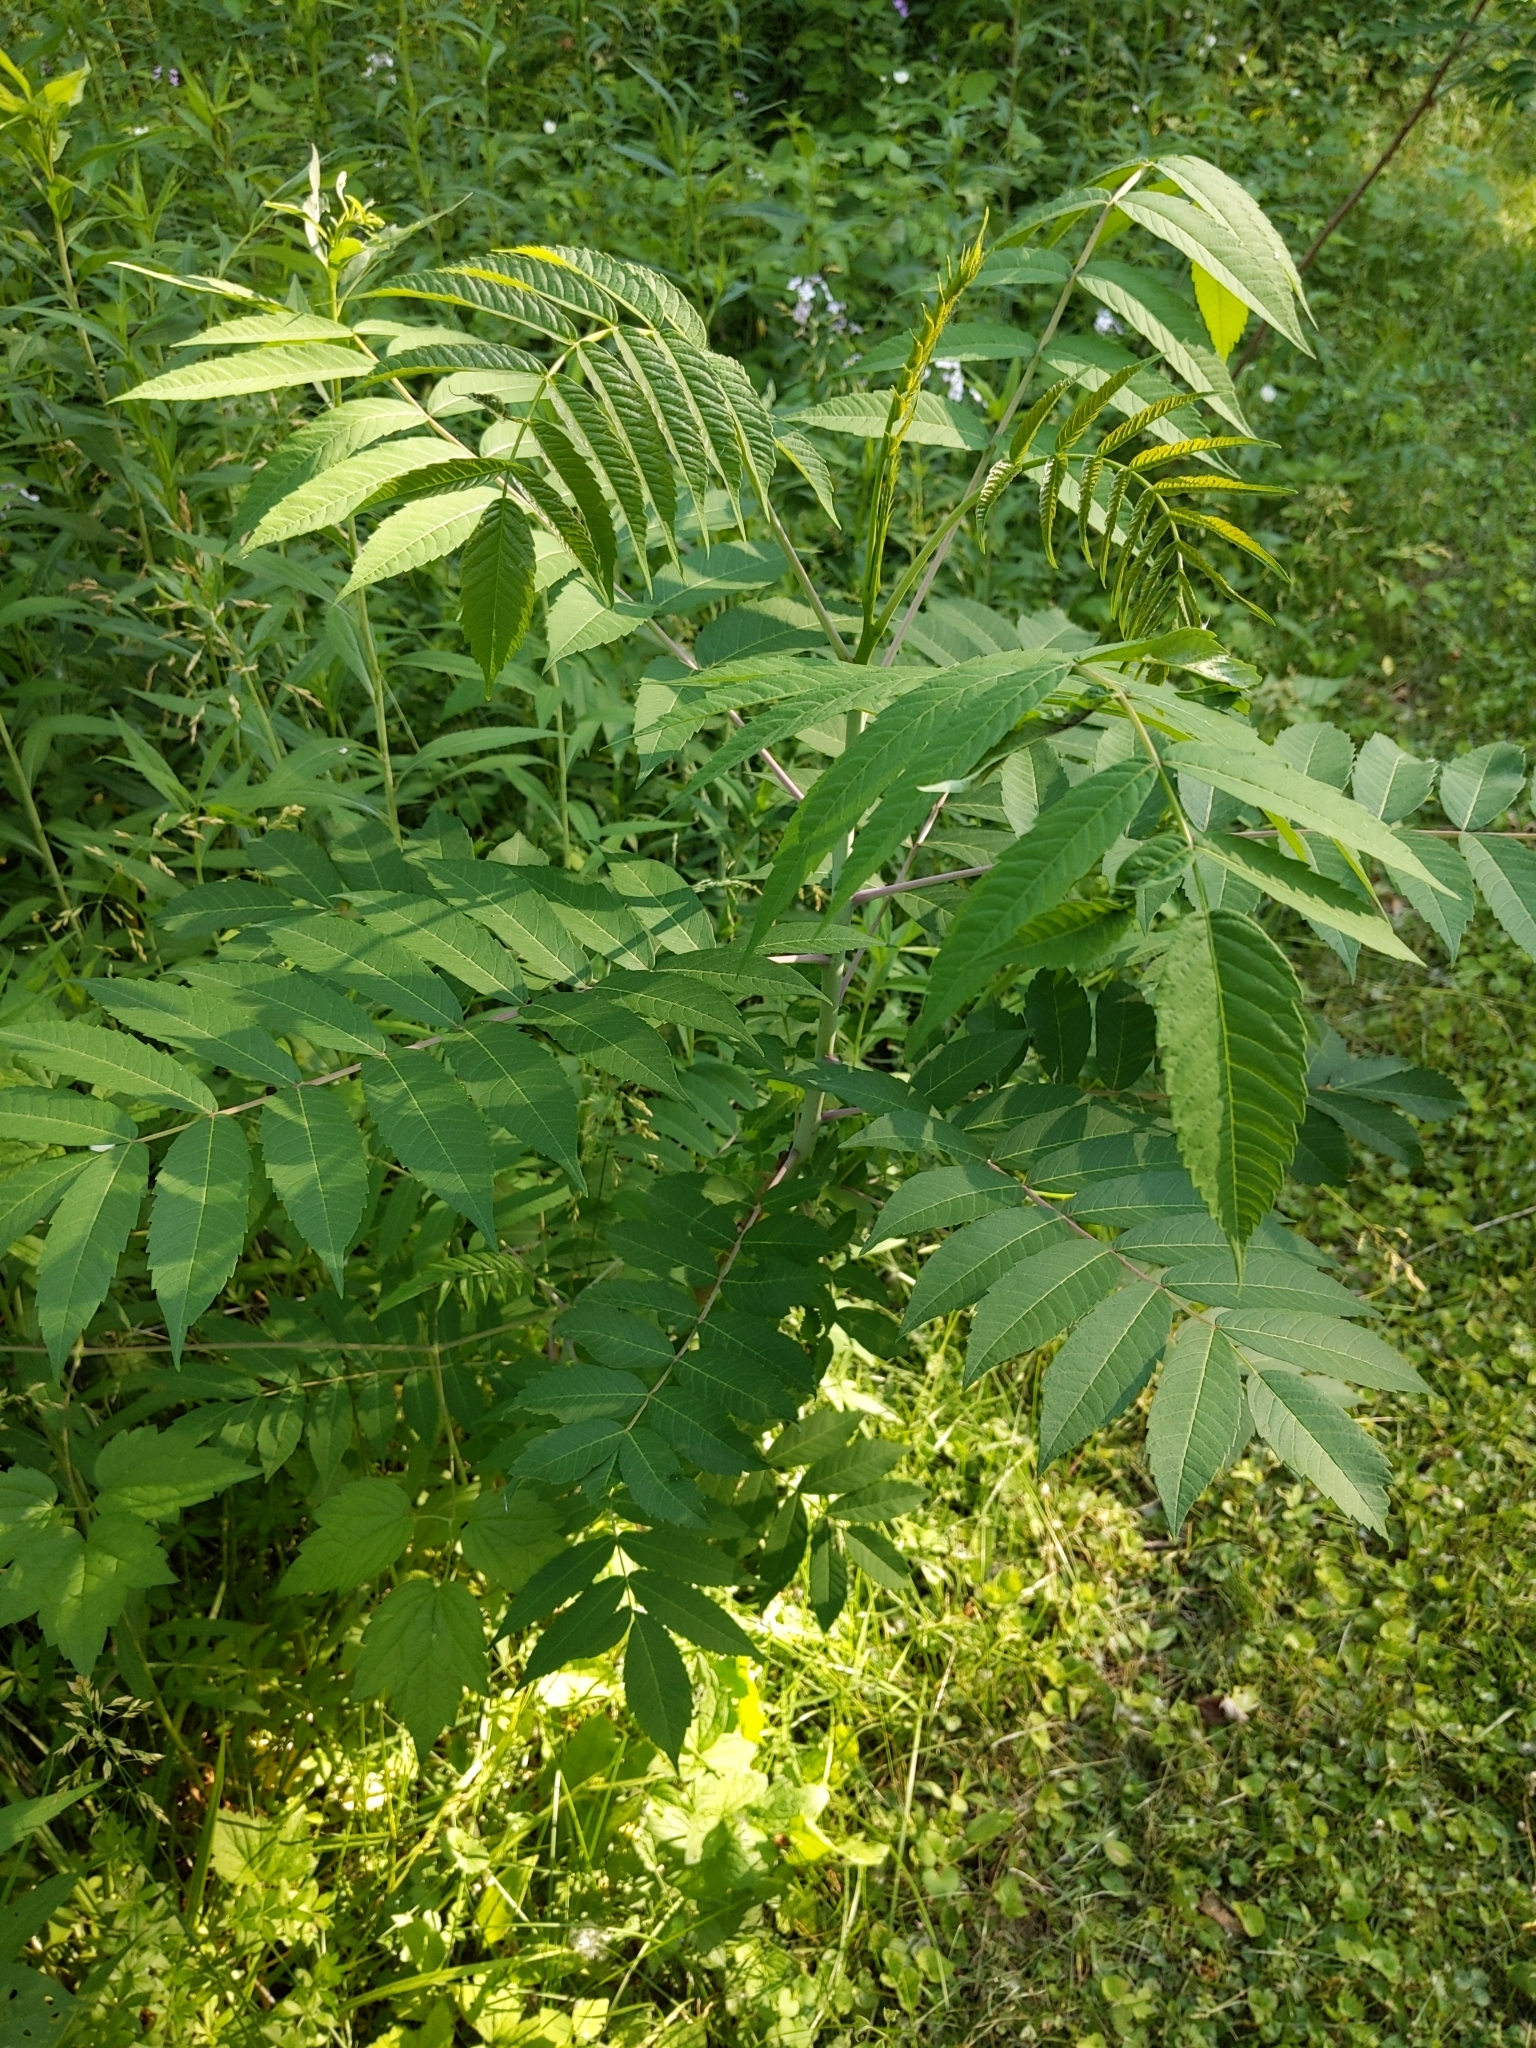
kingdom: Plantae
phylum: Tracheophyta
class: Magnoliopsida
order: Sapindales
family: Anacardiaceae
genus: Rhus
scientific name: Rhus glabra
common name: Scarlet sumac
